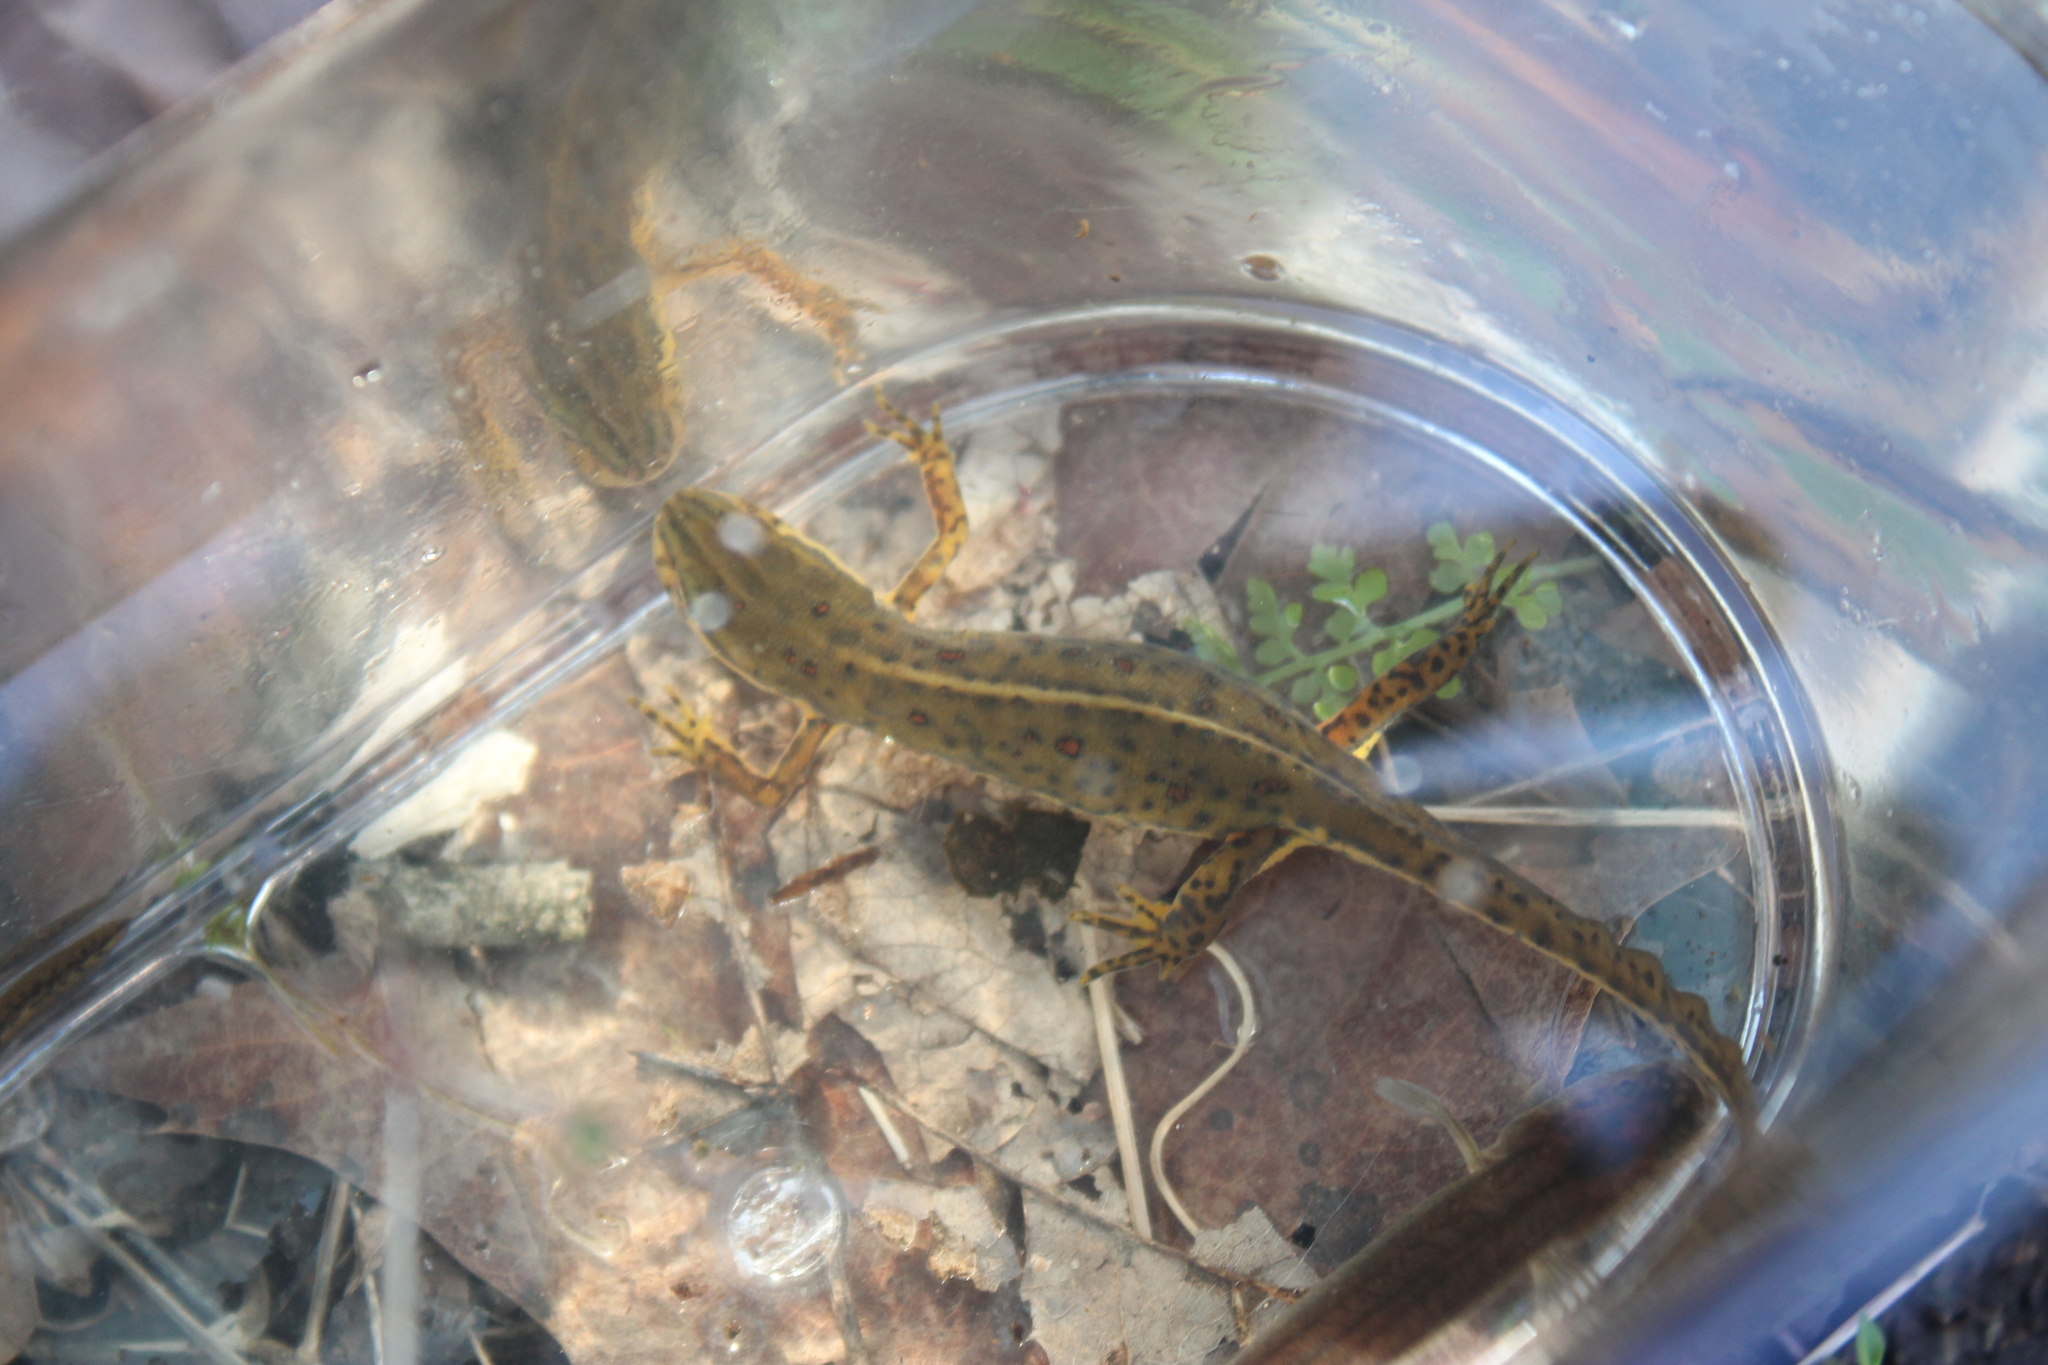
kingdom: Animalia
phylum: Chordata
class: Amphibia
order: Caudata
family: Salamandridae
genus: Notophthalmus
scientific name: Notophthalmus viridescens
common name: Eastern newt
